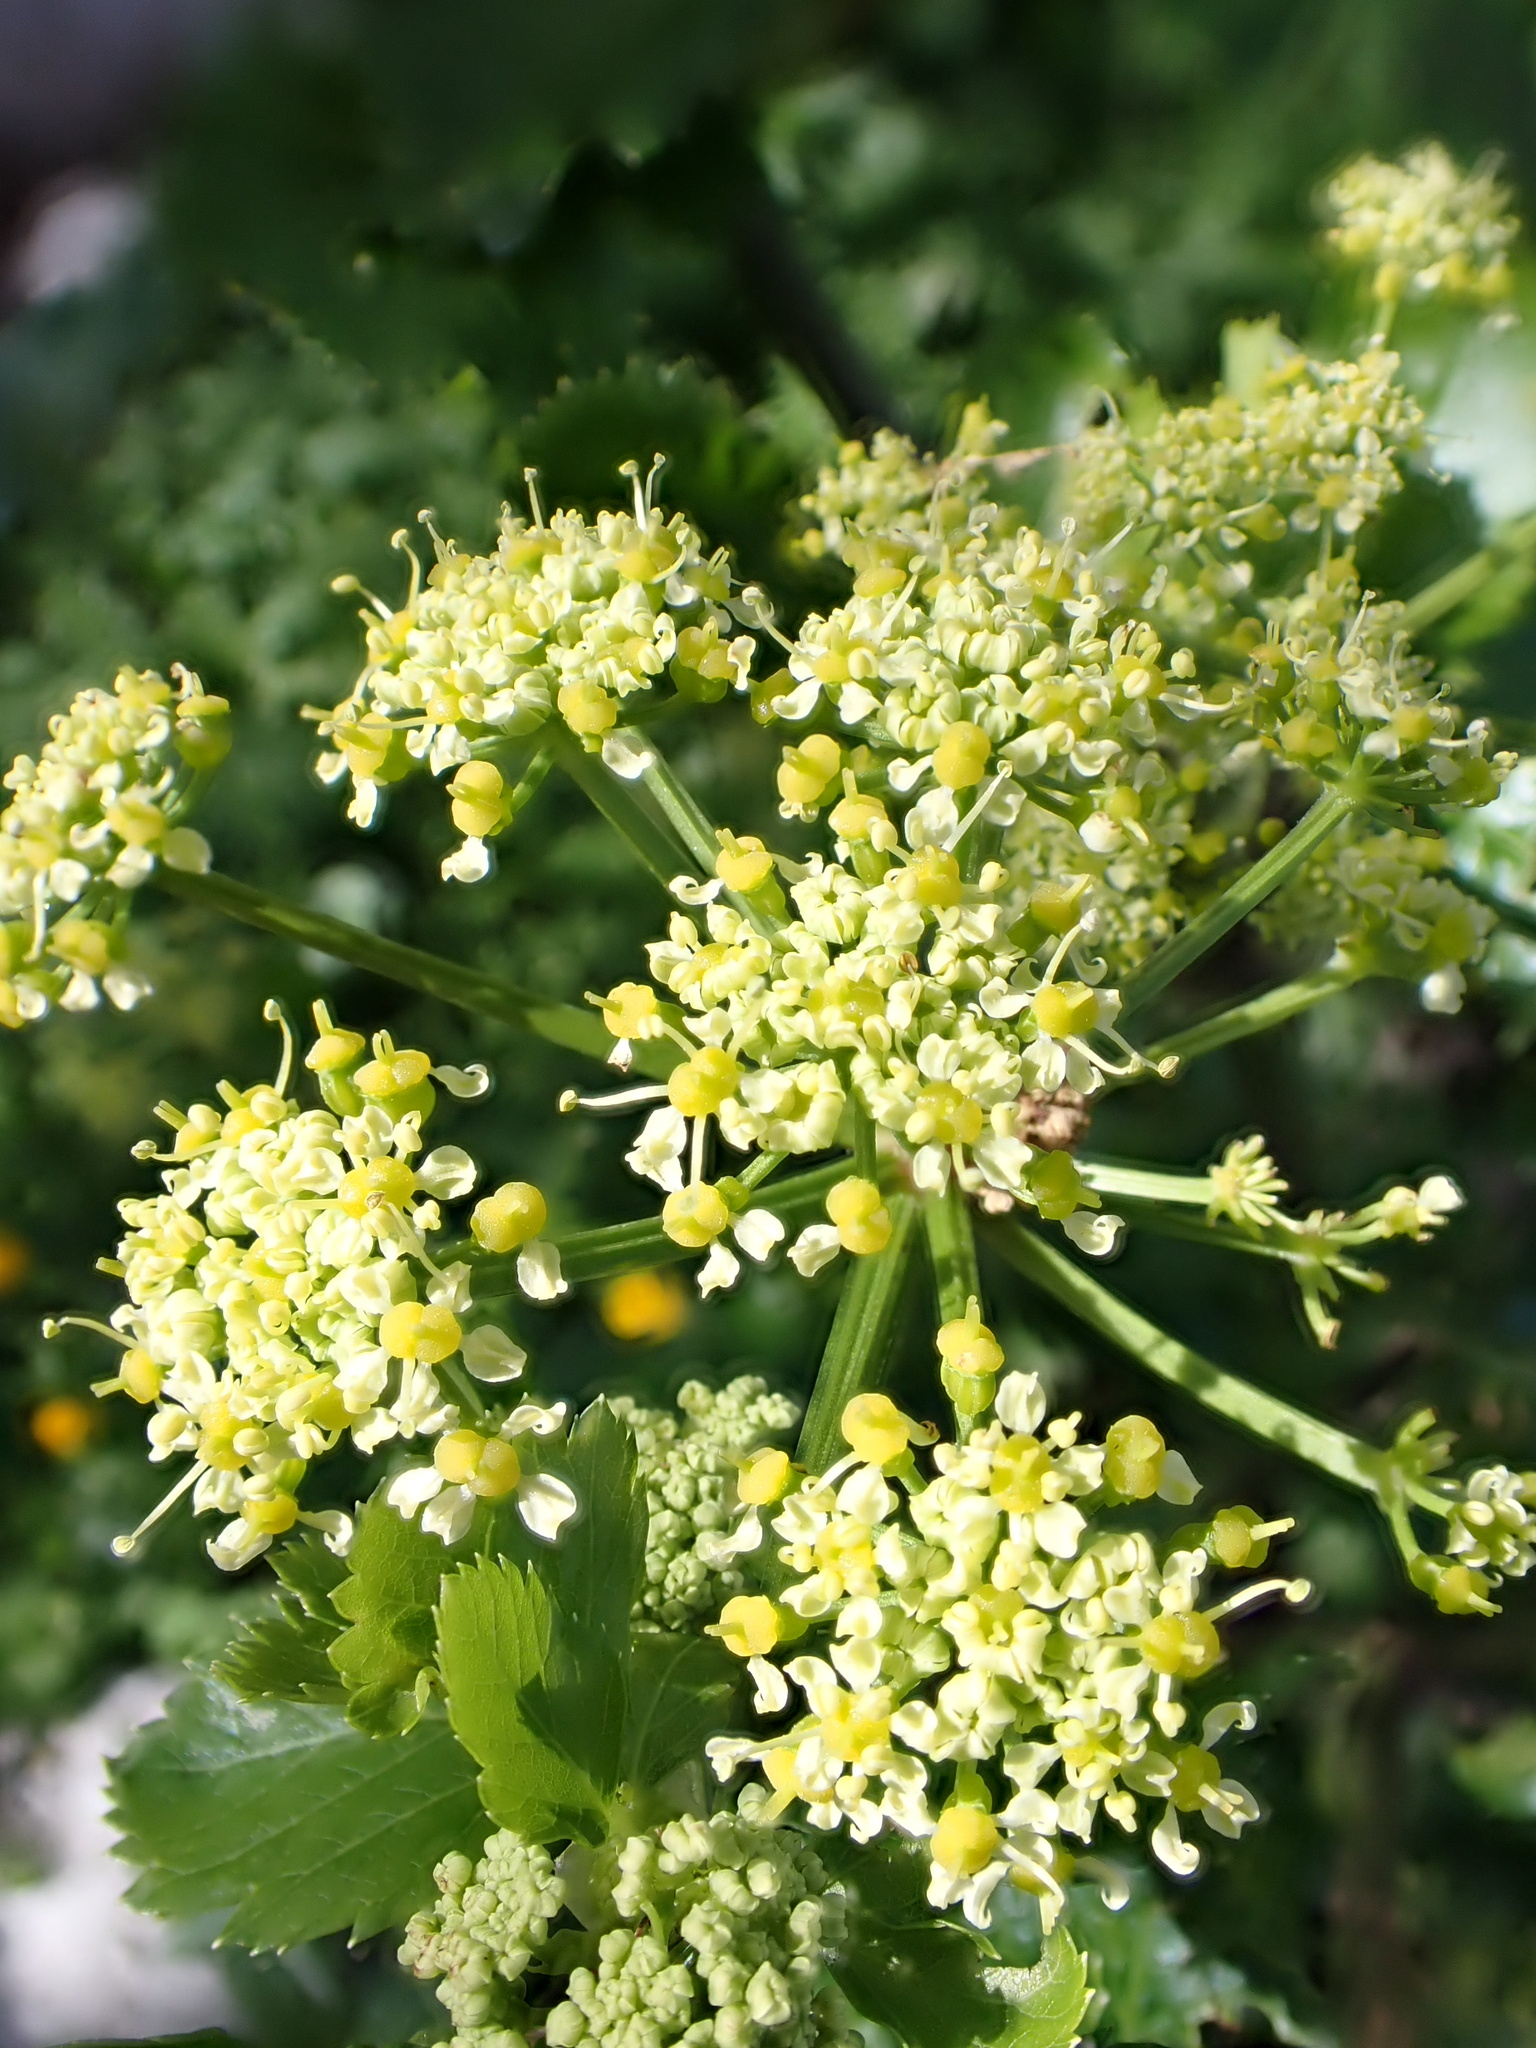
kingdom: Plantae
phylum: Tracheophyta
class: Magnoliopsida
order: Apiales
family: Apiaceae
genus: Smyrnium
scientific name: Smyrnium olusatrum
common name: Alexanders
